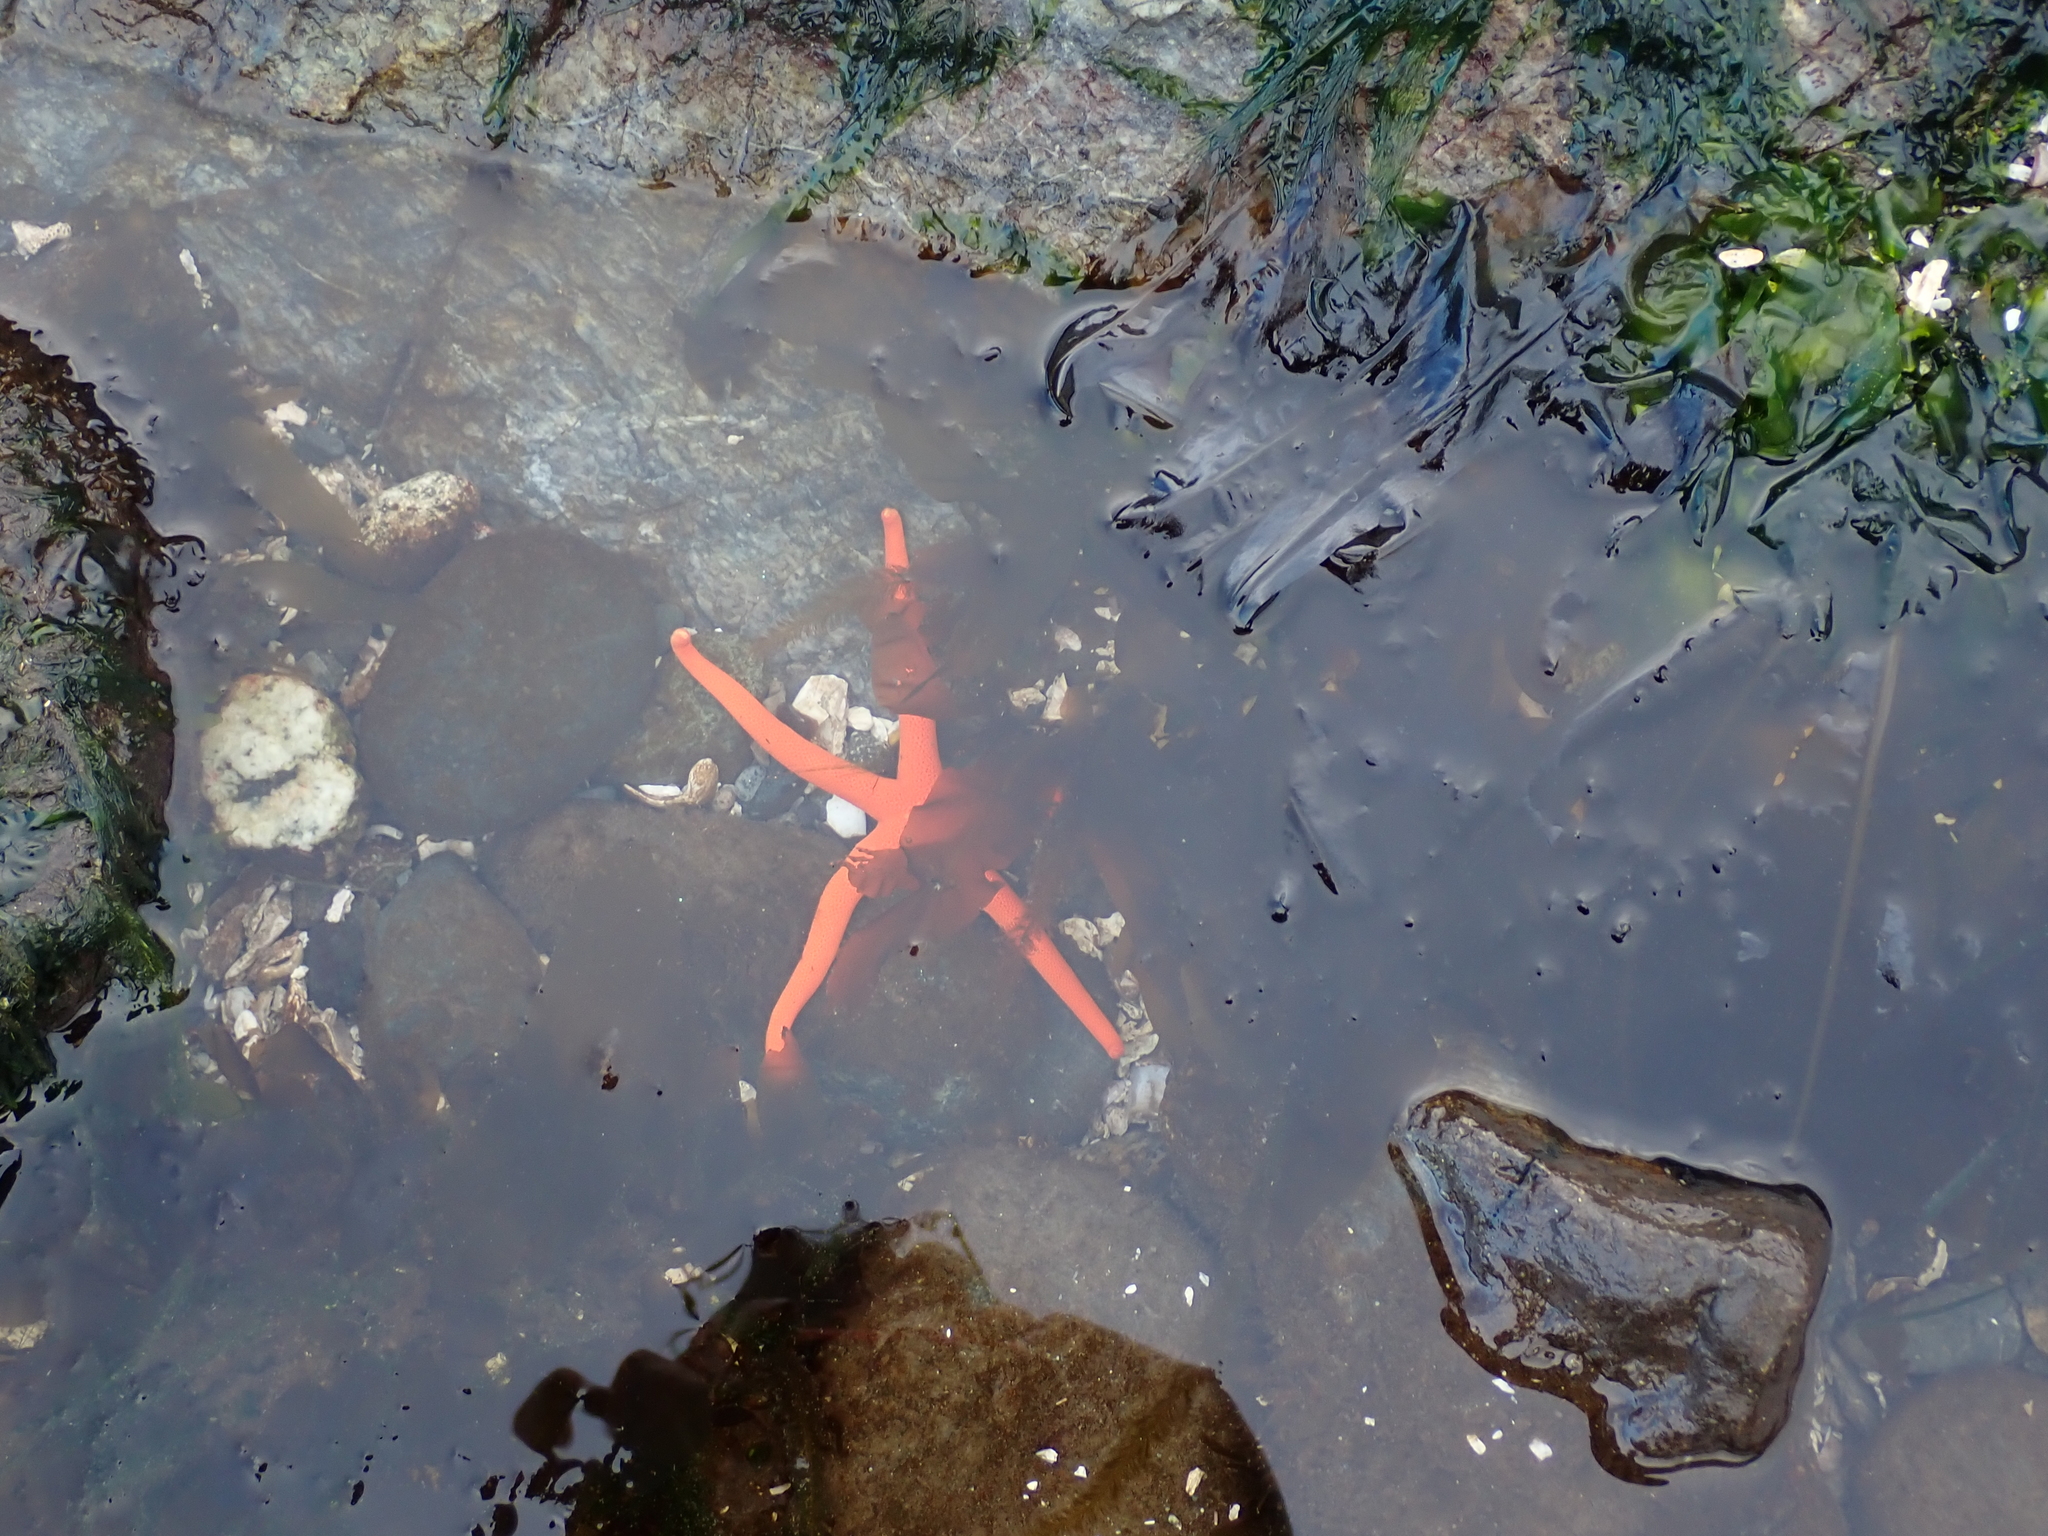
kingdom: Animalia
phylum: Echinodermata
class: Asteroidea
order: Spinulosida
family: Echinasteridae
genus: Henricia
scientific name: Henricia leviuscula
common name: Pacific blood star
